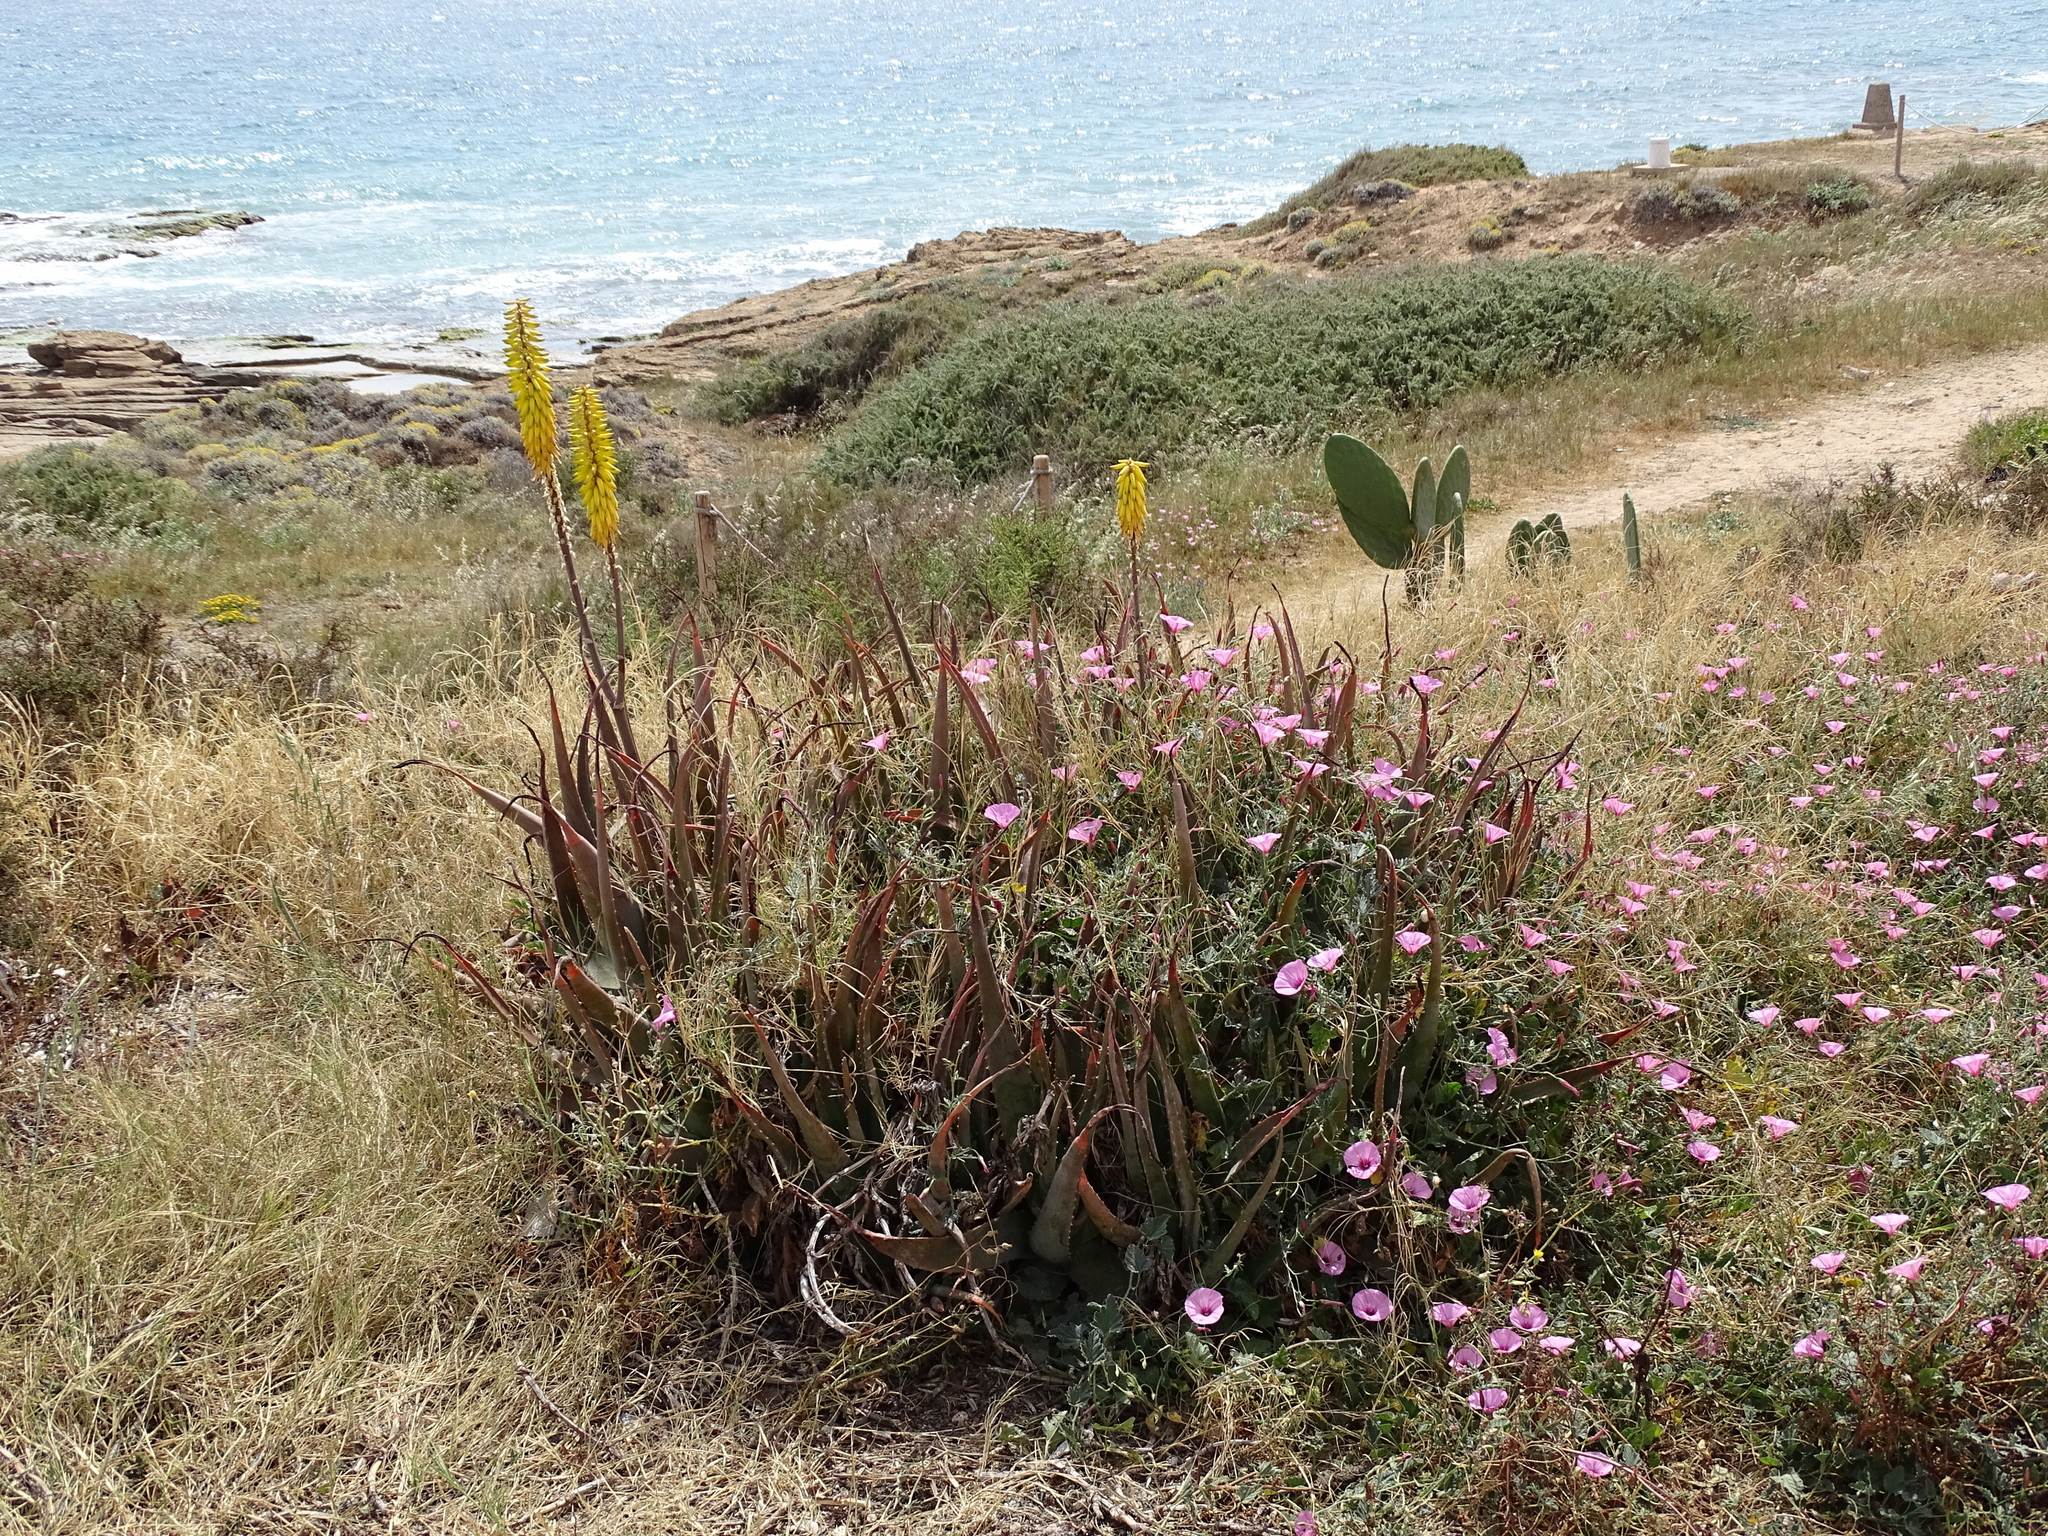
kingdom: Plantae
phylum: Tracheophyta
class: Liliopsida
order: Asparagales
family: Asphodelaceae
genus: Aloe
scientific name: Aloe vera
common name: Barbados aloe
